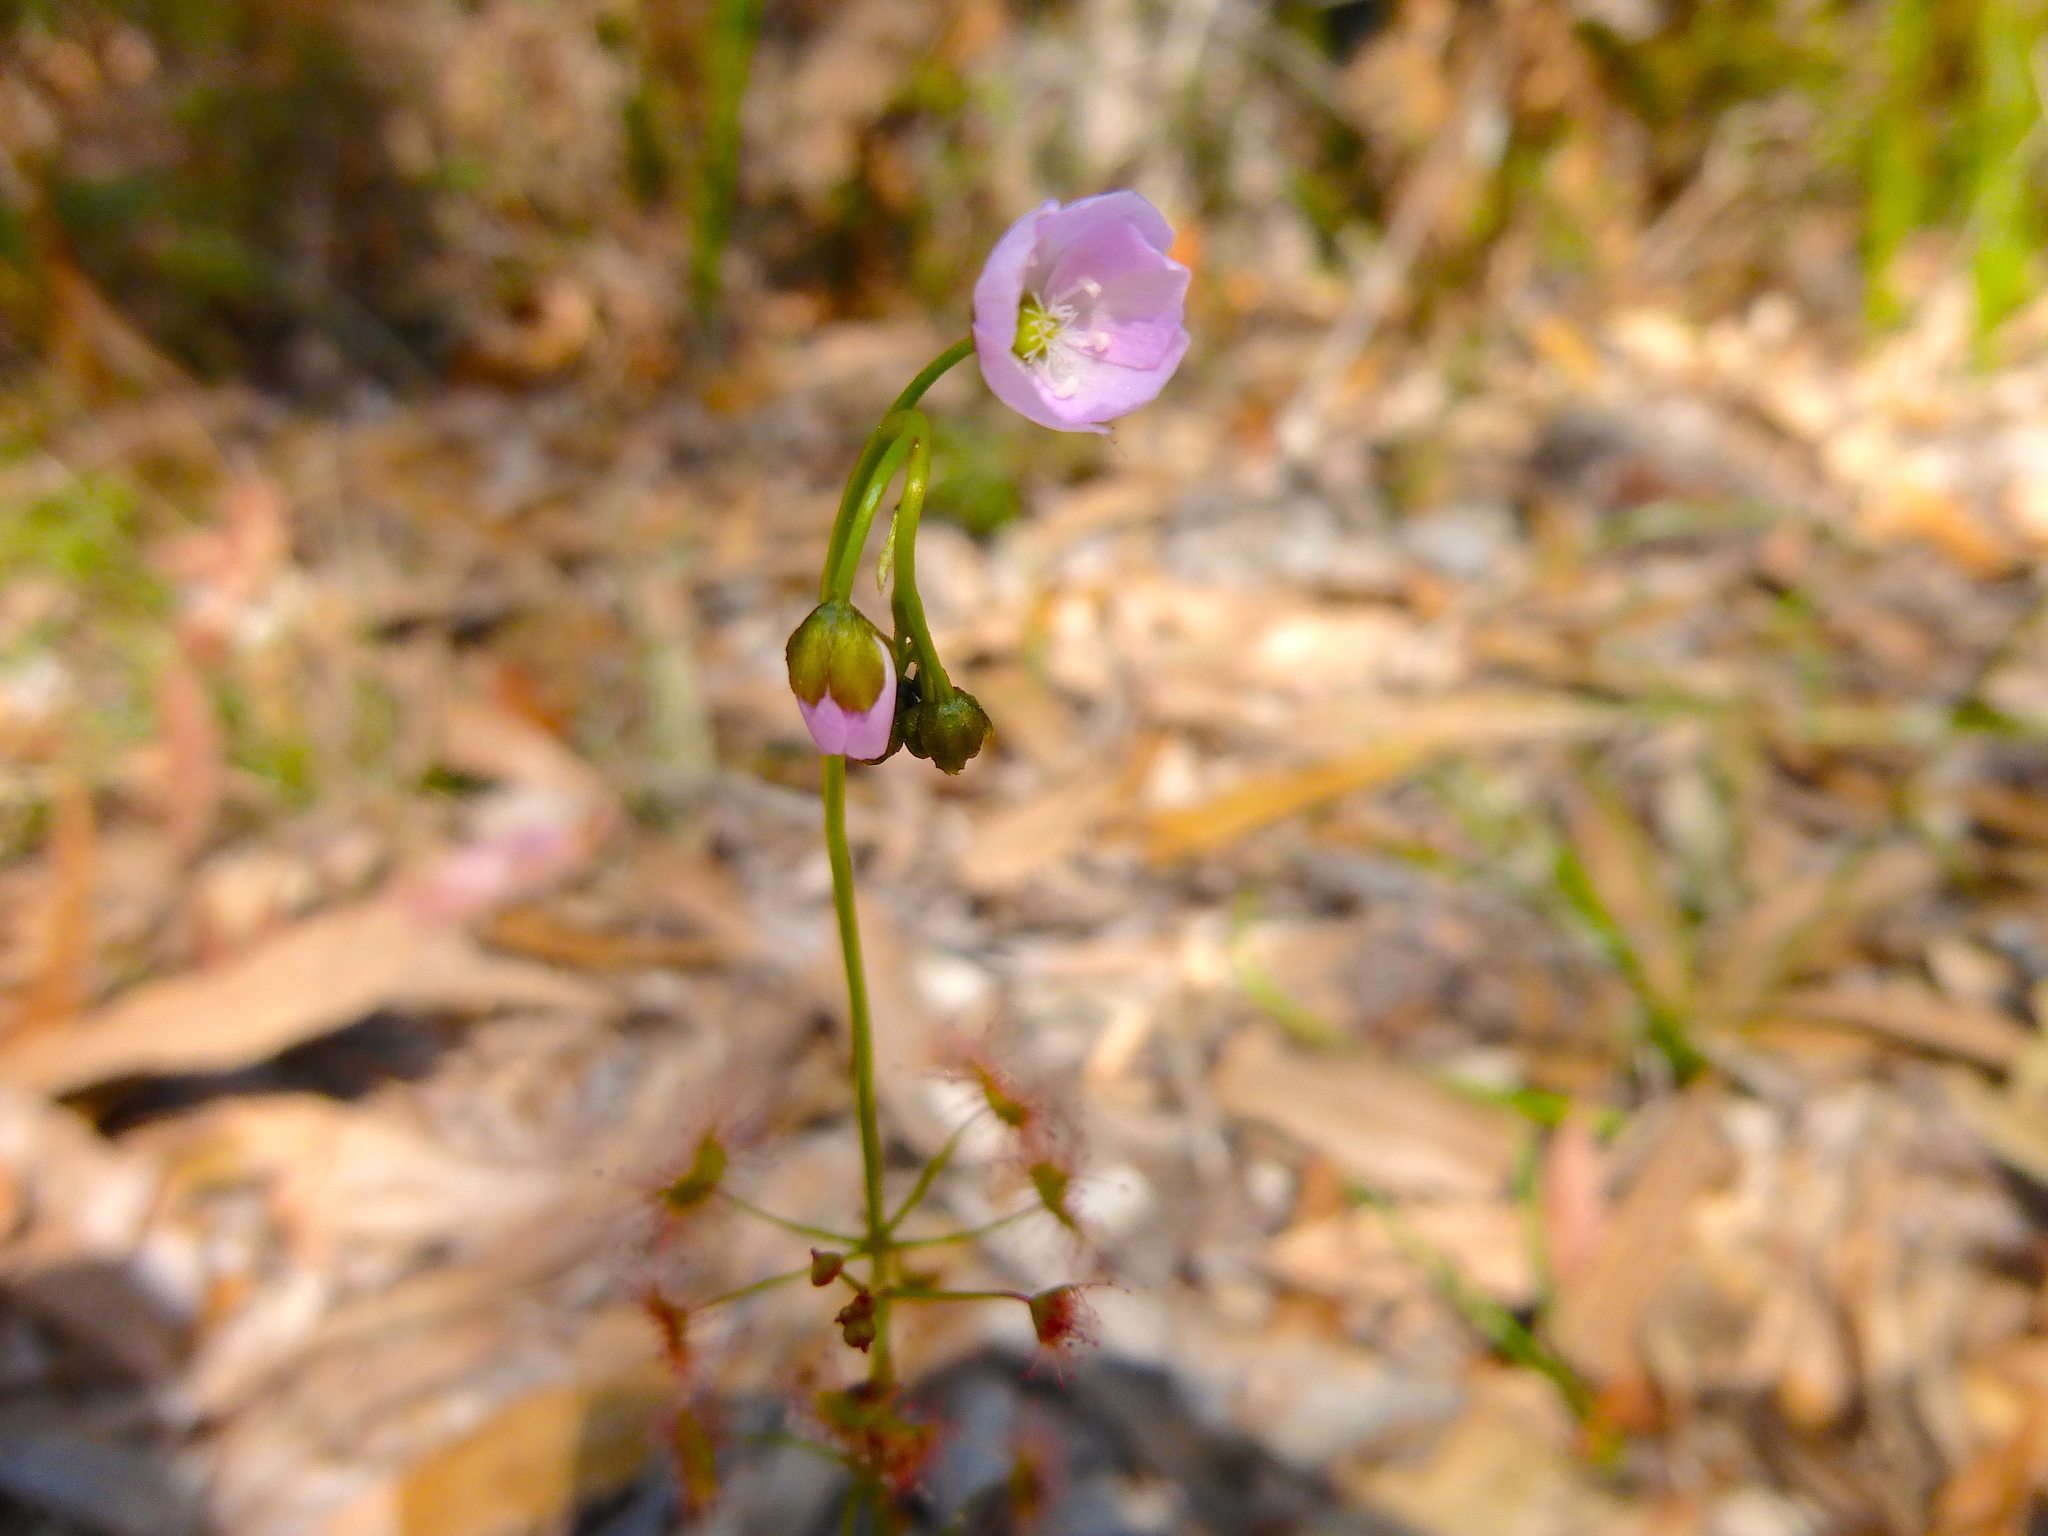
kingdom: Plantae
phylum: Tracheophyta
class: Magnoliopsida
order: Caryophyllales
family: Droseraceae
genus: Drosera
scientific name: Drosera peltata
